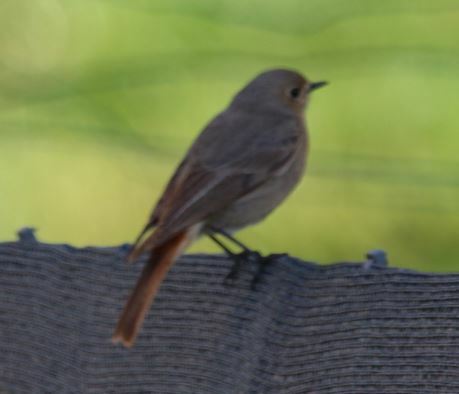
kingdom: Animalia
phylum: Chordata
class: Aves
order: Passeriformes
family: Muscicapidae
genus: Phoenicurus
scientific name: Phoenicurus ochruros
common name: Black redstart
